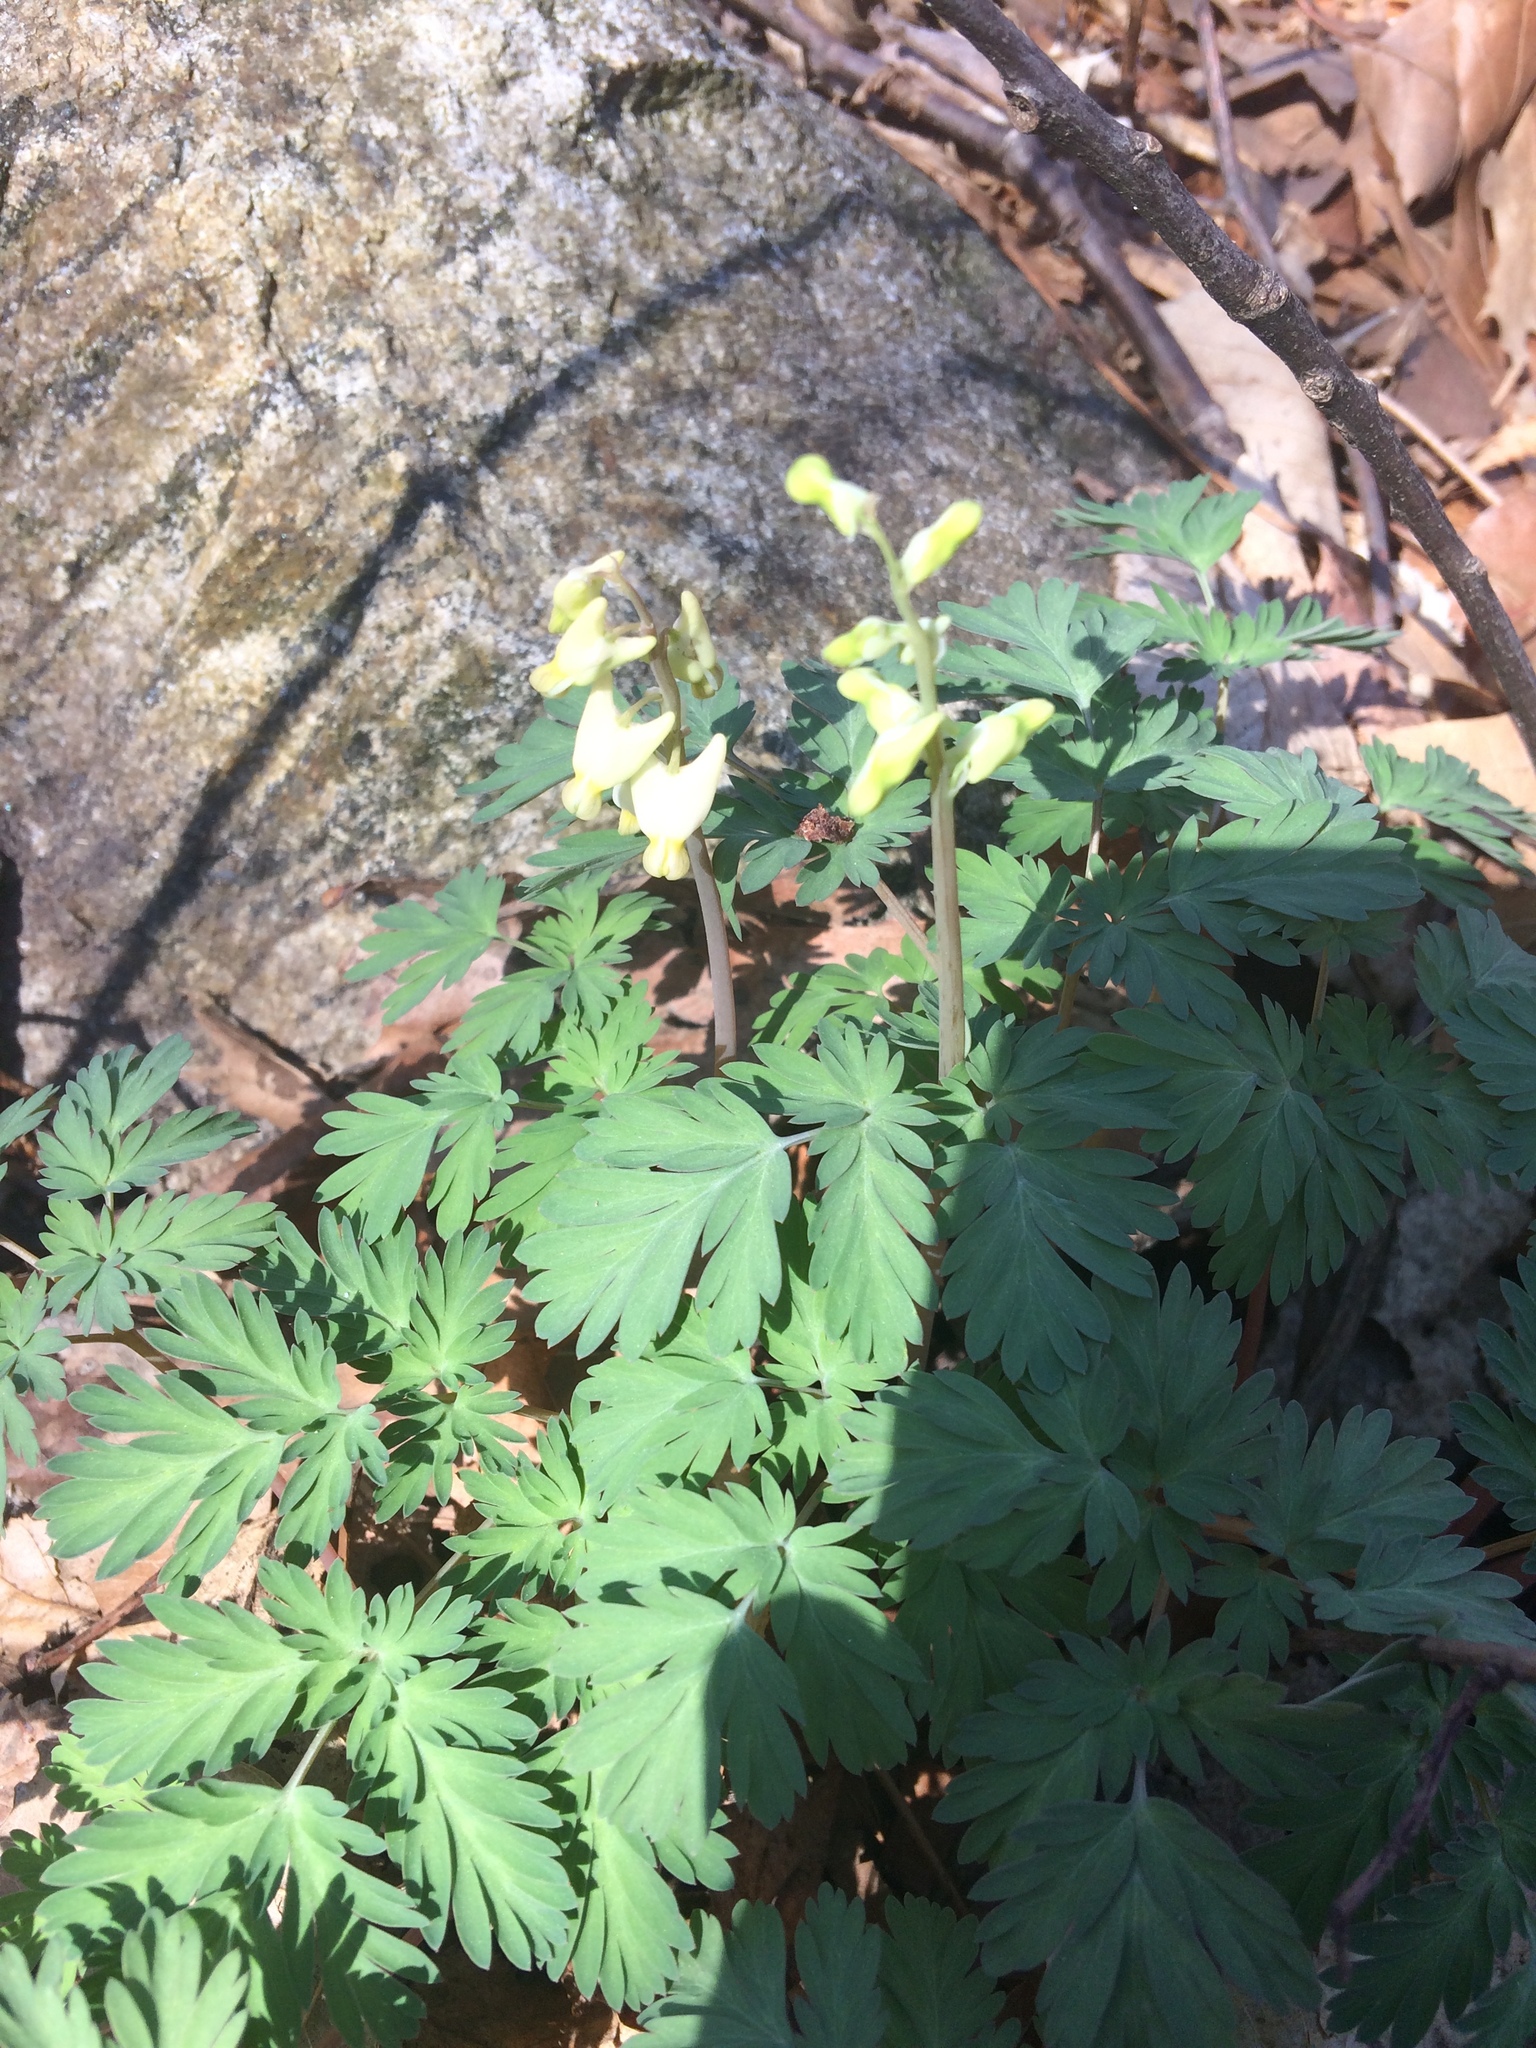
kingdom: Plantae
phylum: Tracheophyta
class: Magnoliopsida
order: Ranunculales
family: Papaveraceae
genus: Dicentra
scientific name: Dicentra cucullaria
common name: Dutchman's breeches
